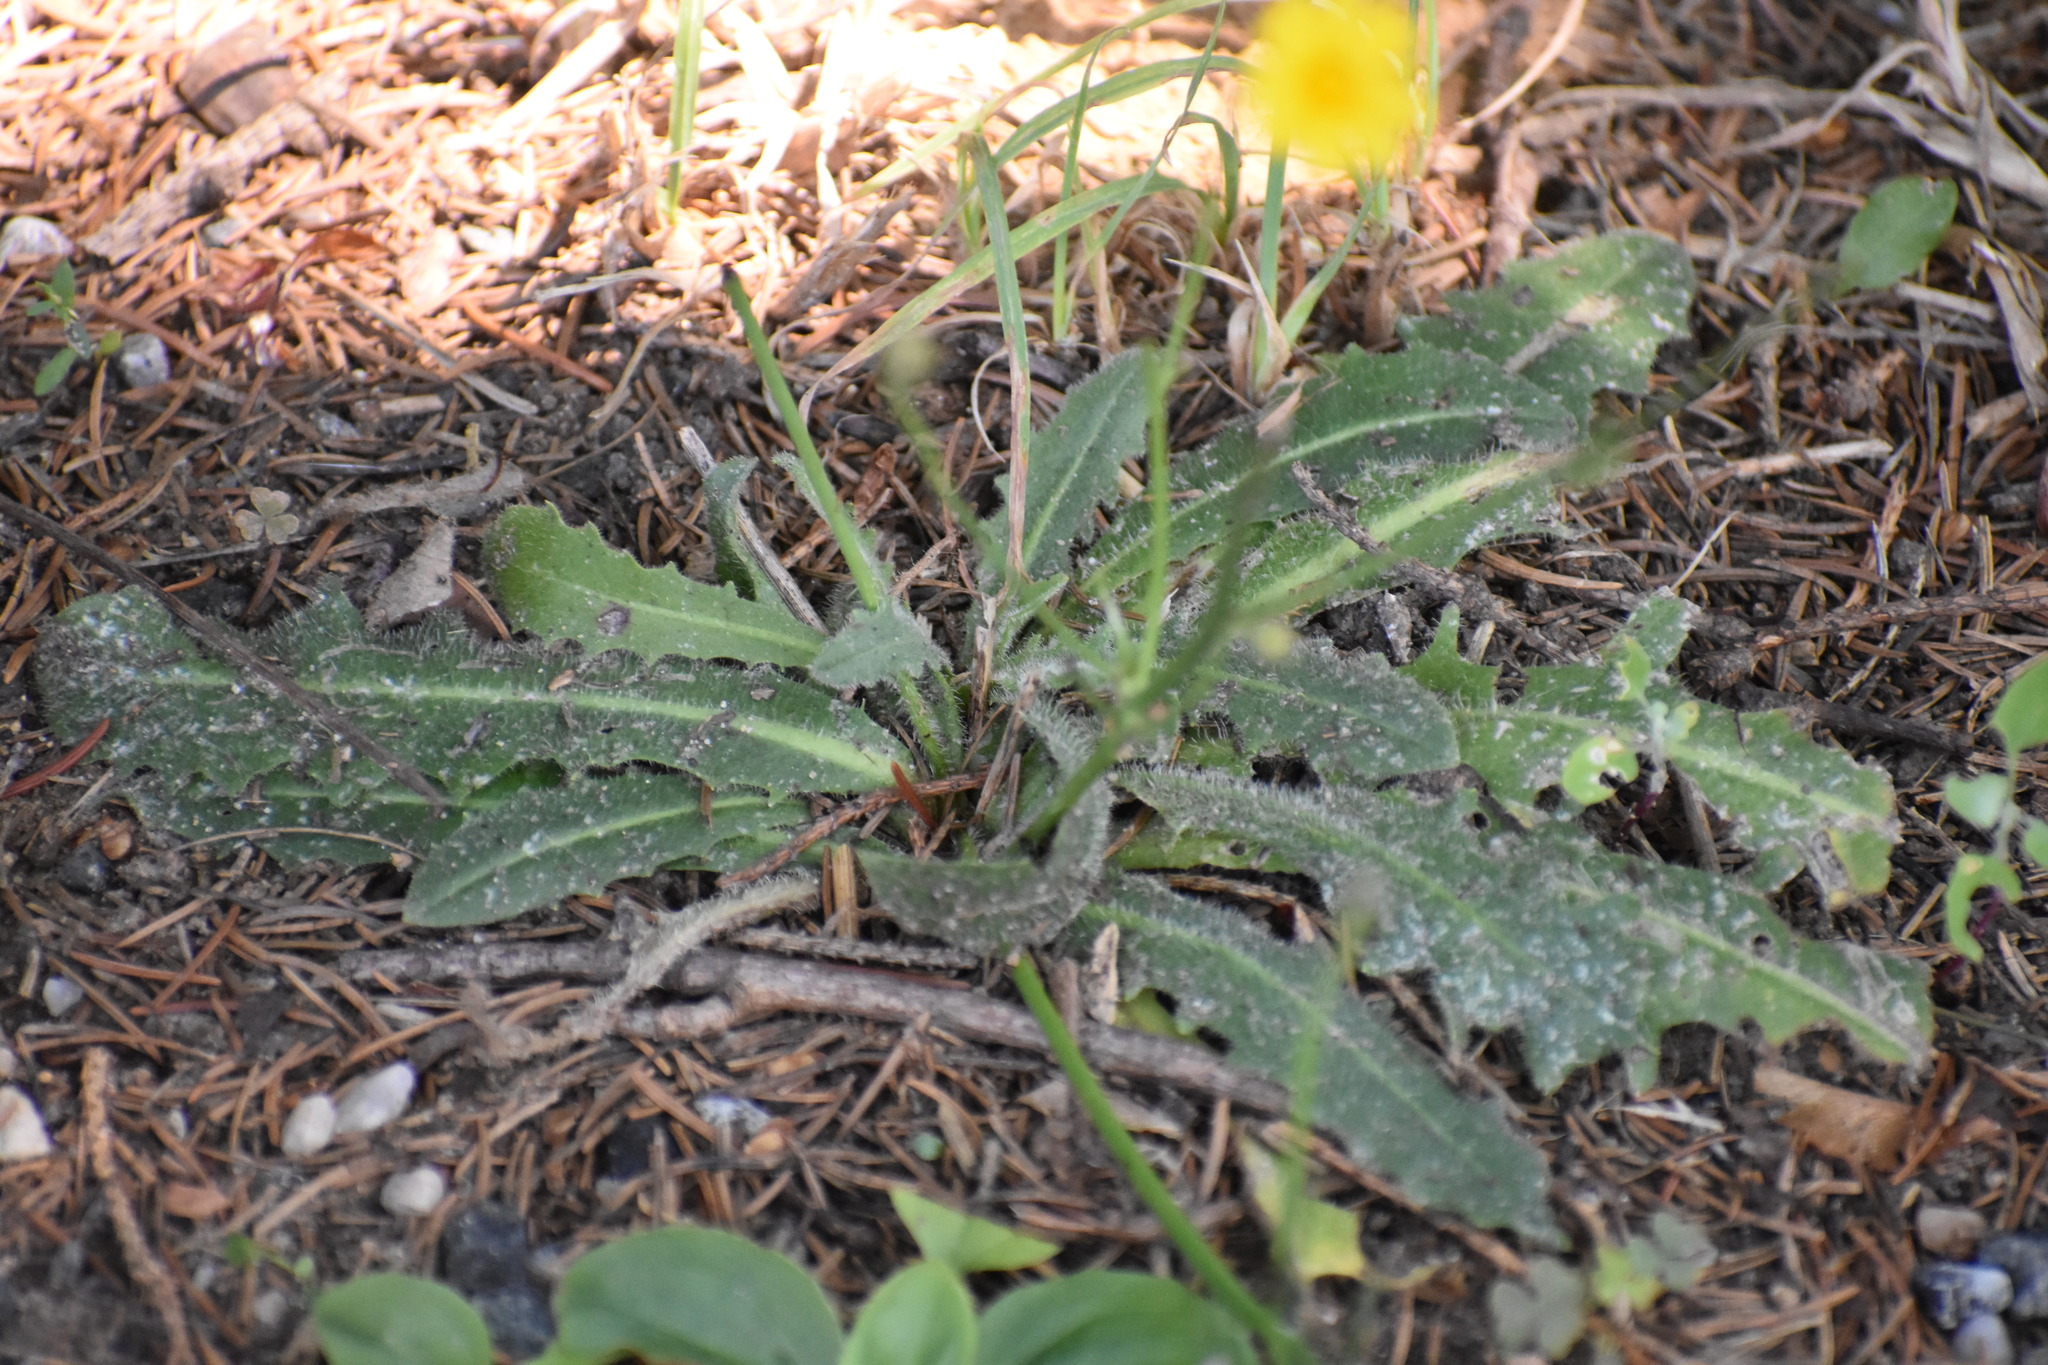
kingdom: Plantae
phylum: Tracheophyta
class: Magnoliopsida
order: Asterales
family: Asteraceae
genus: Hypochaeris
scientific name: Hypochaeris radicata
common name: Flatweed
